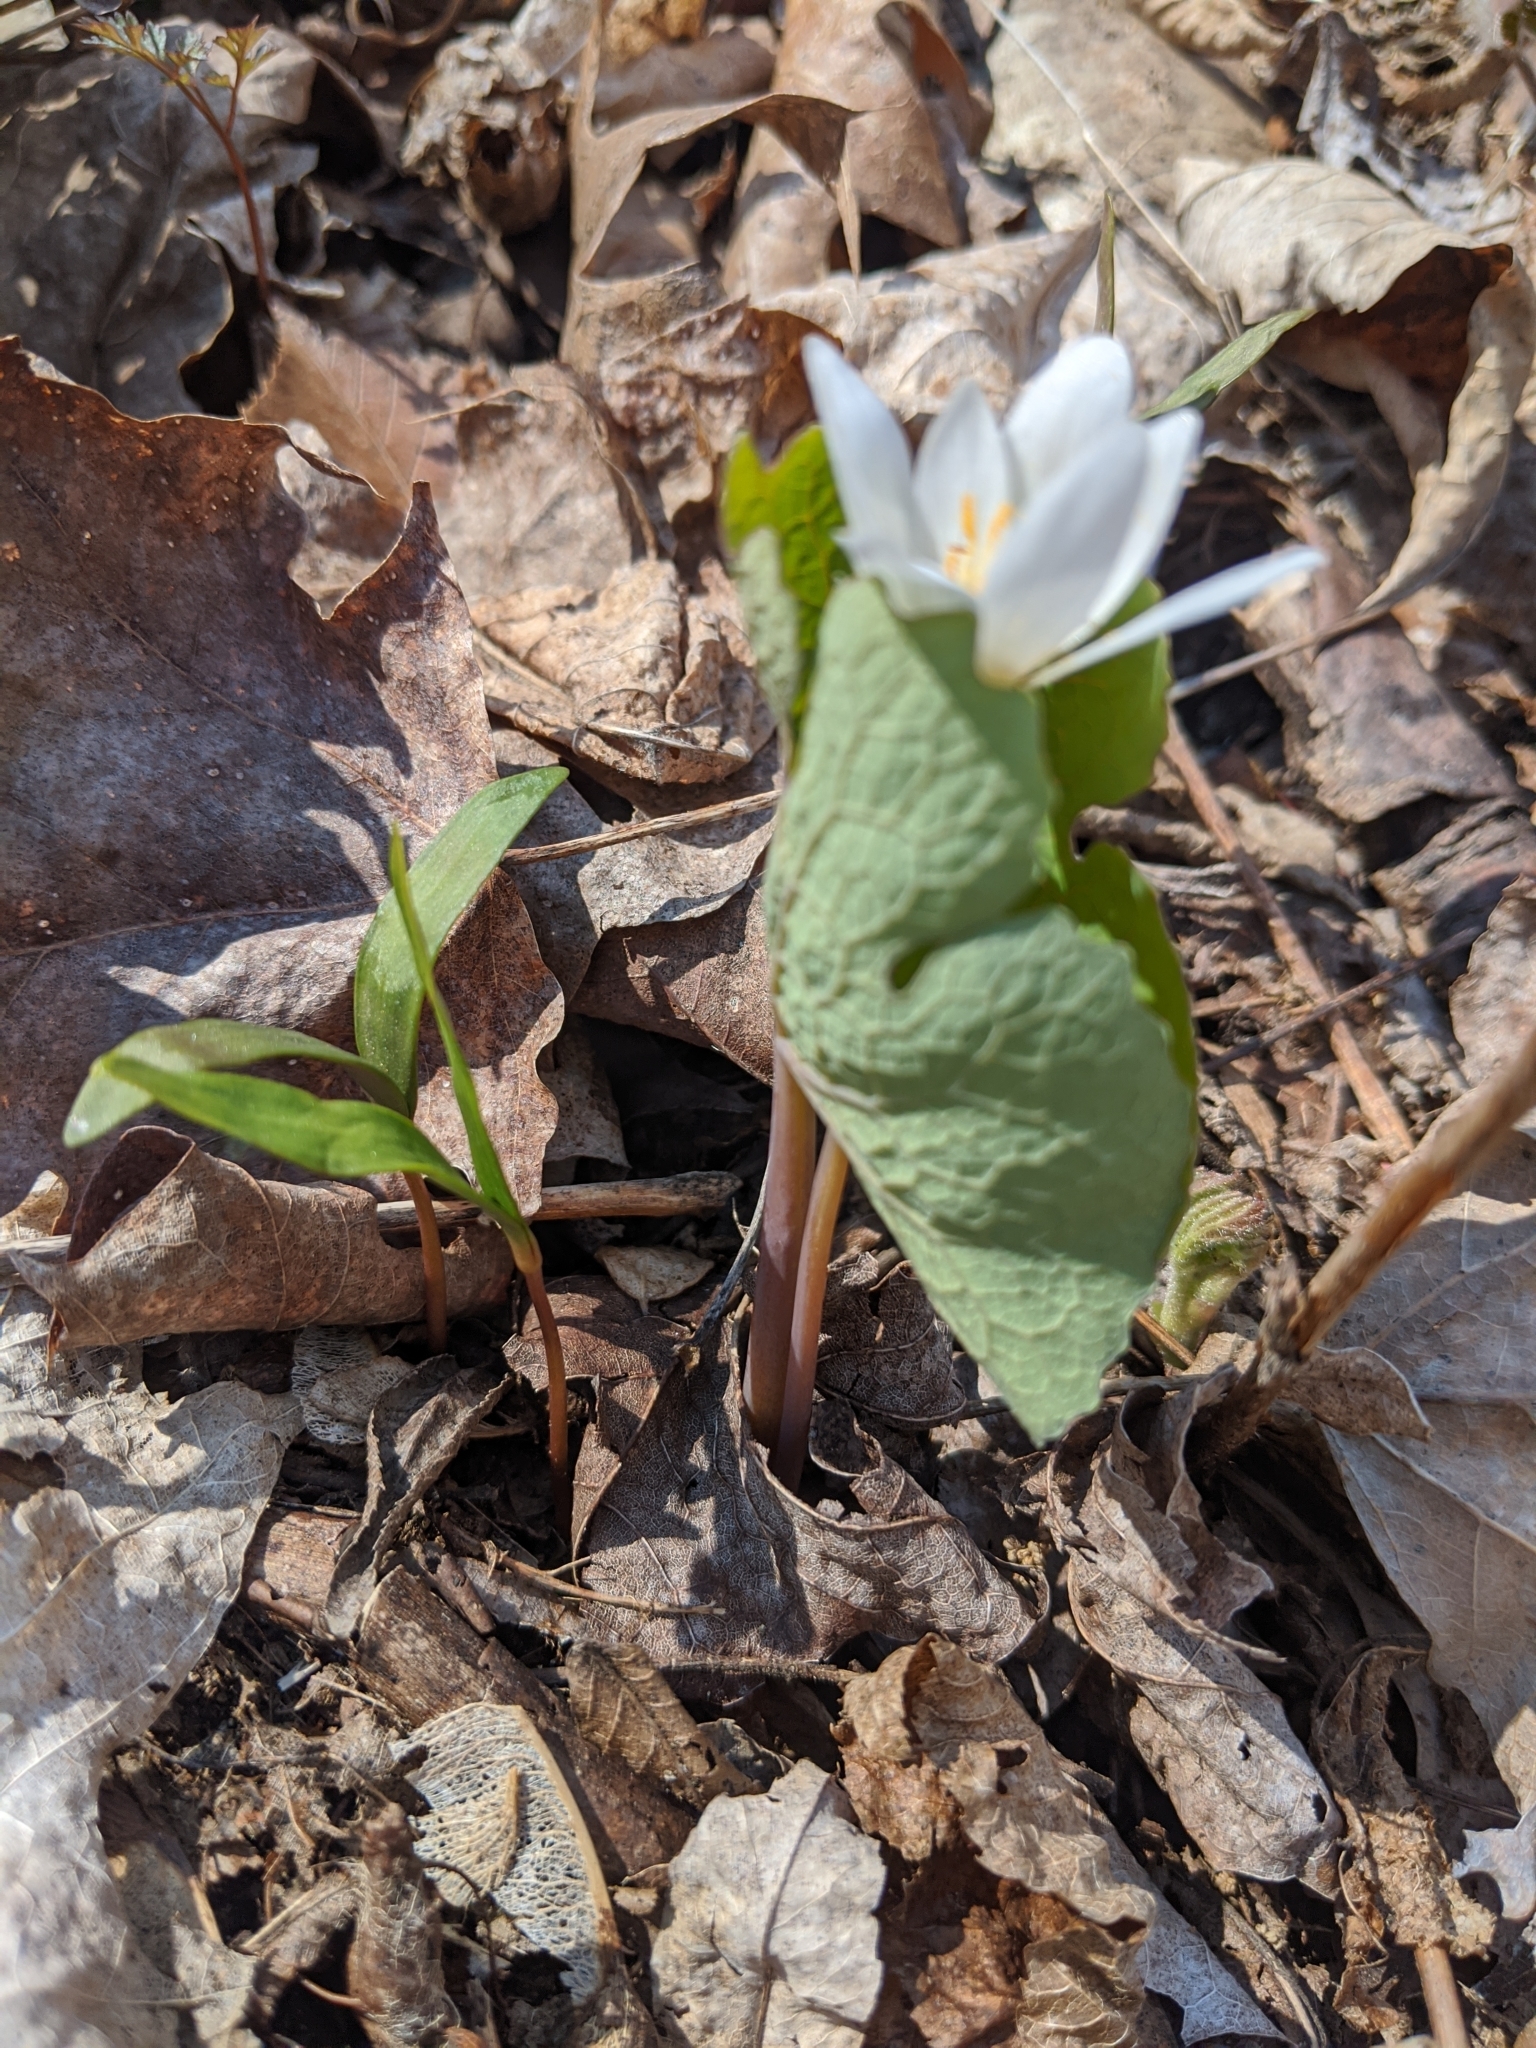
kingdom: Plantae
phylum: Tracheophyta
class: Magnoliopsida
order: Ranunculales
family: Papaveraceae
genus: Sanguinaria
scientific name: Sanguinaria canadensis
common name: Bloodroot
